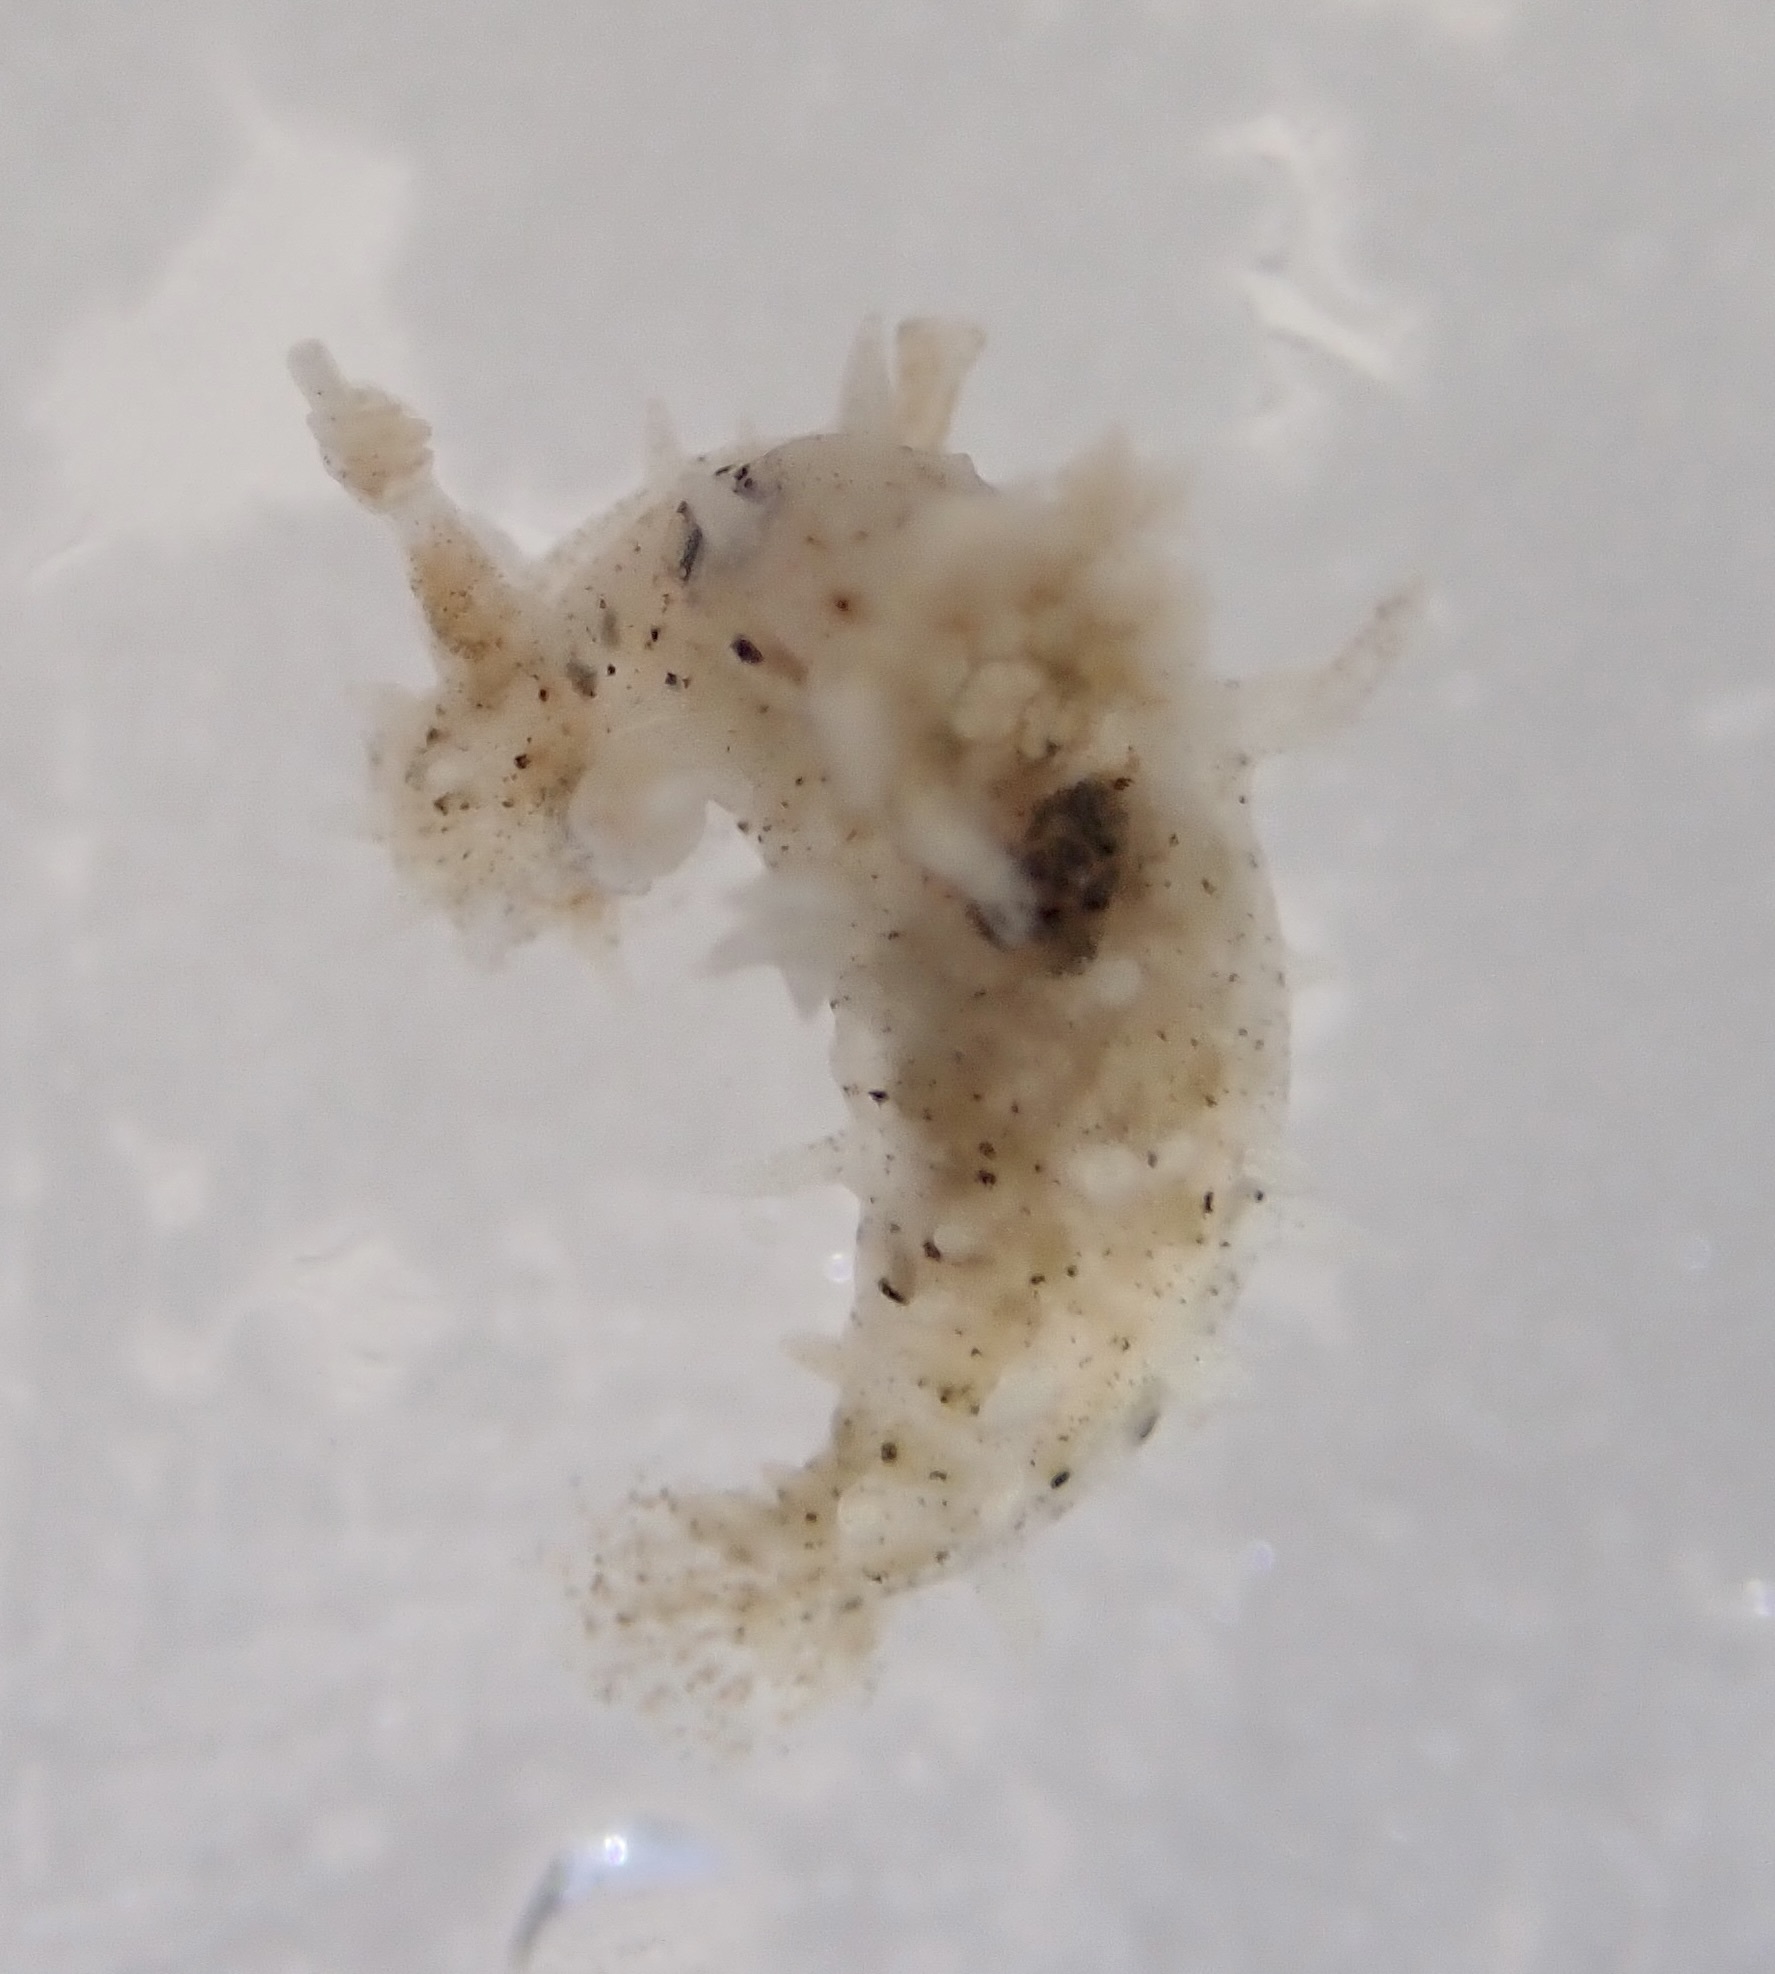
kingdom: Animalia
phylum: Mollusca
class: Gastropoda
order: Nudibranchia
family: Polyceridae
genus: Polycerella
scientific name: Polycerella glandulosa
